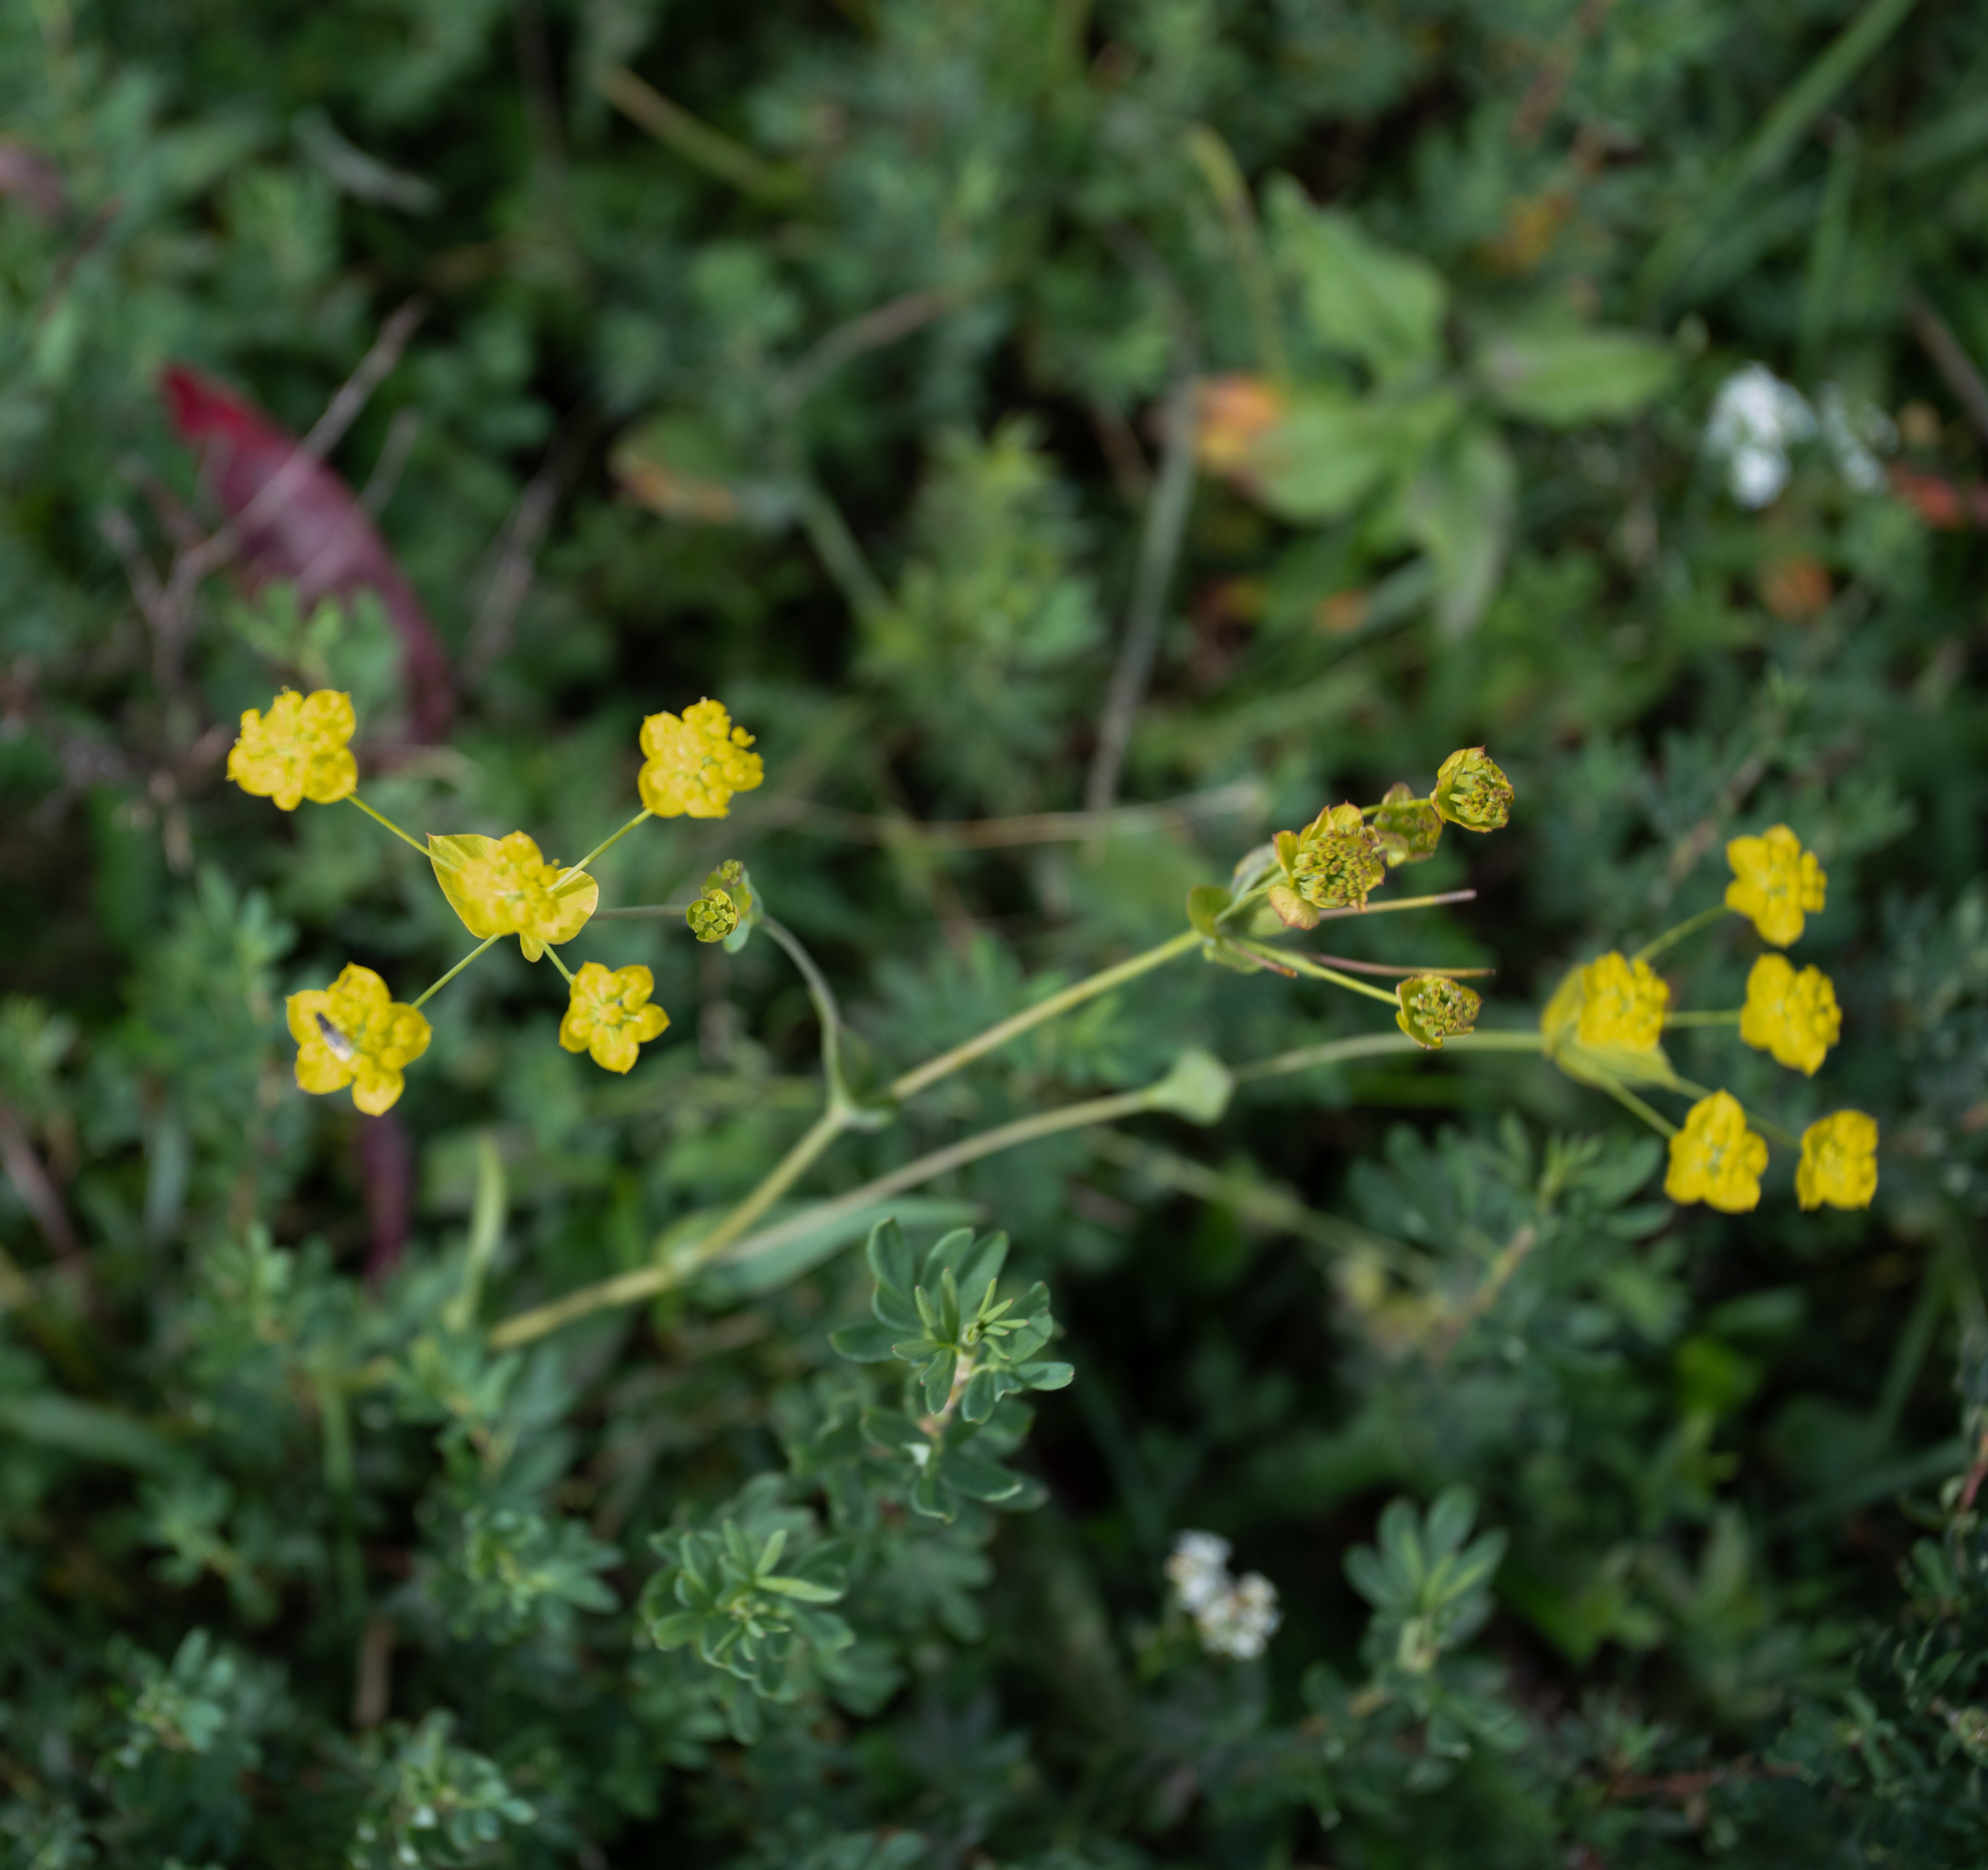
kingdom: Plantae
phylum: Tracheophyta
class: Magnoliopsida
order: Apiales
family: Apiaceae
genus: Bupleurum
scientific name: Bupleurum aureum
